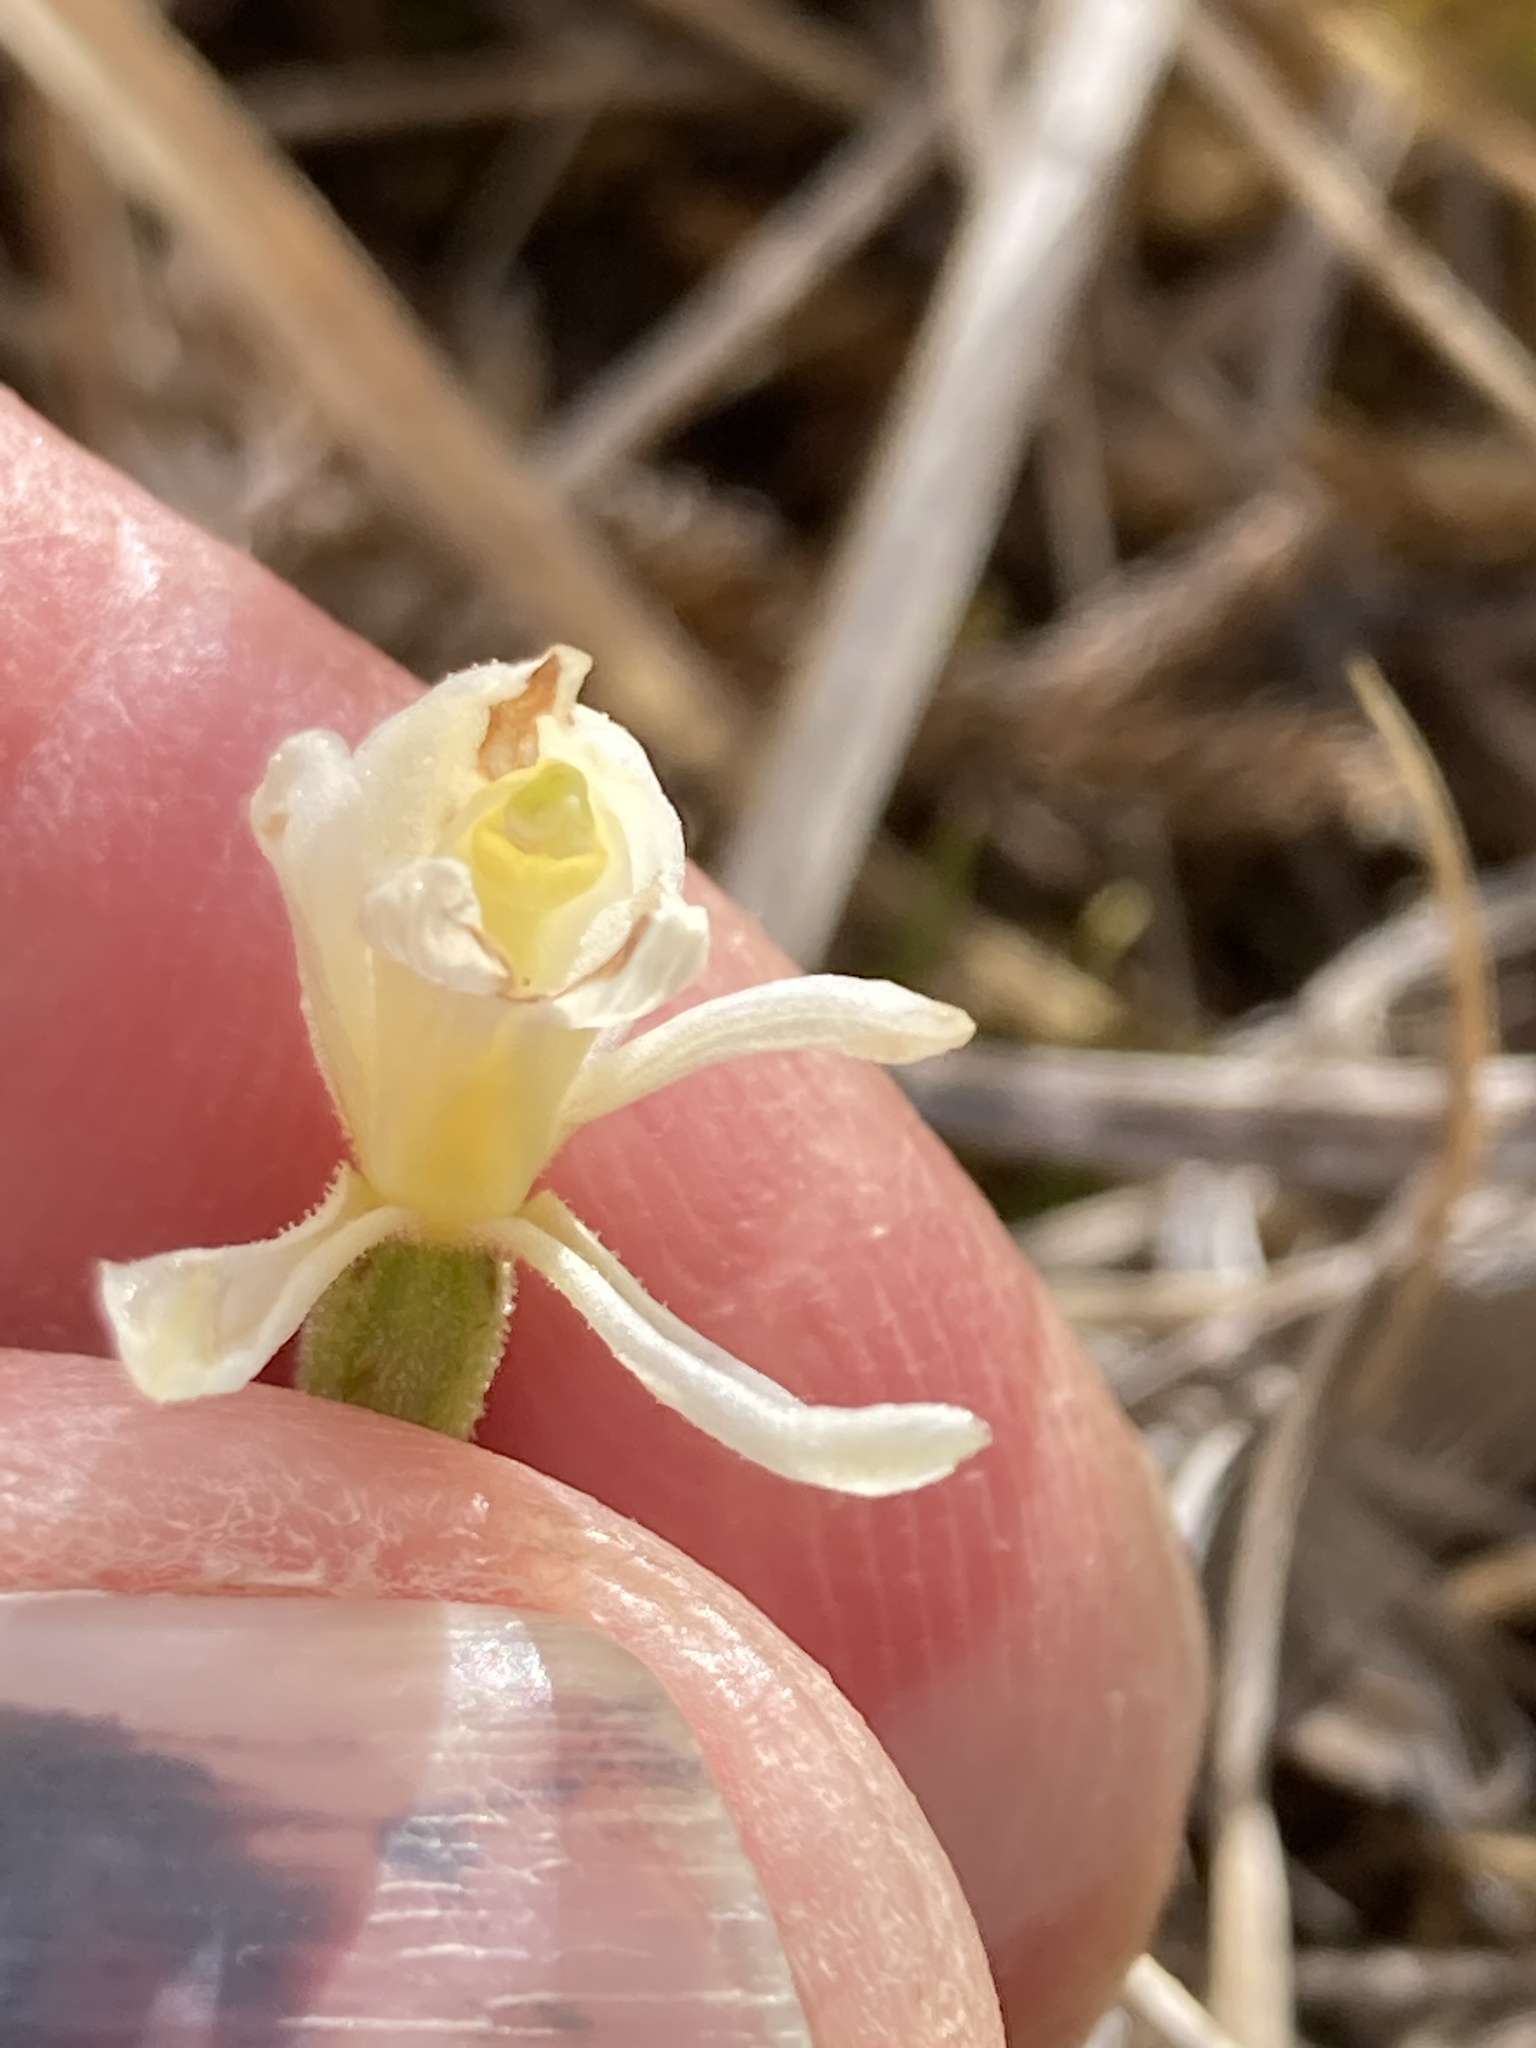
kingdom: Plantae
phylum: Tracheophyta
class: Liliopsida
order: Asparagales
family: Orchidaceae
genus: Aporostylis
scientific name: Aporostylis bifolia
